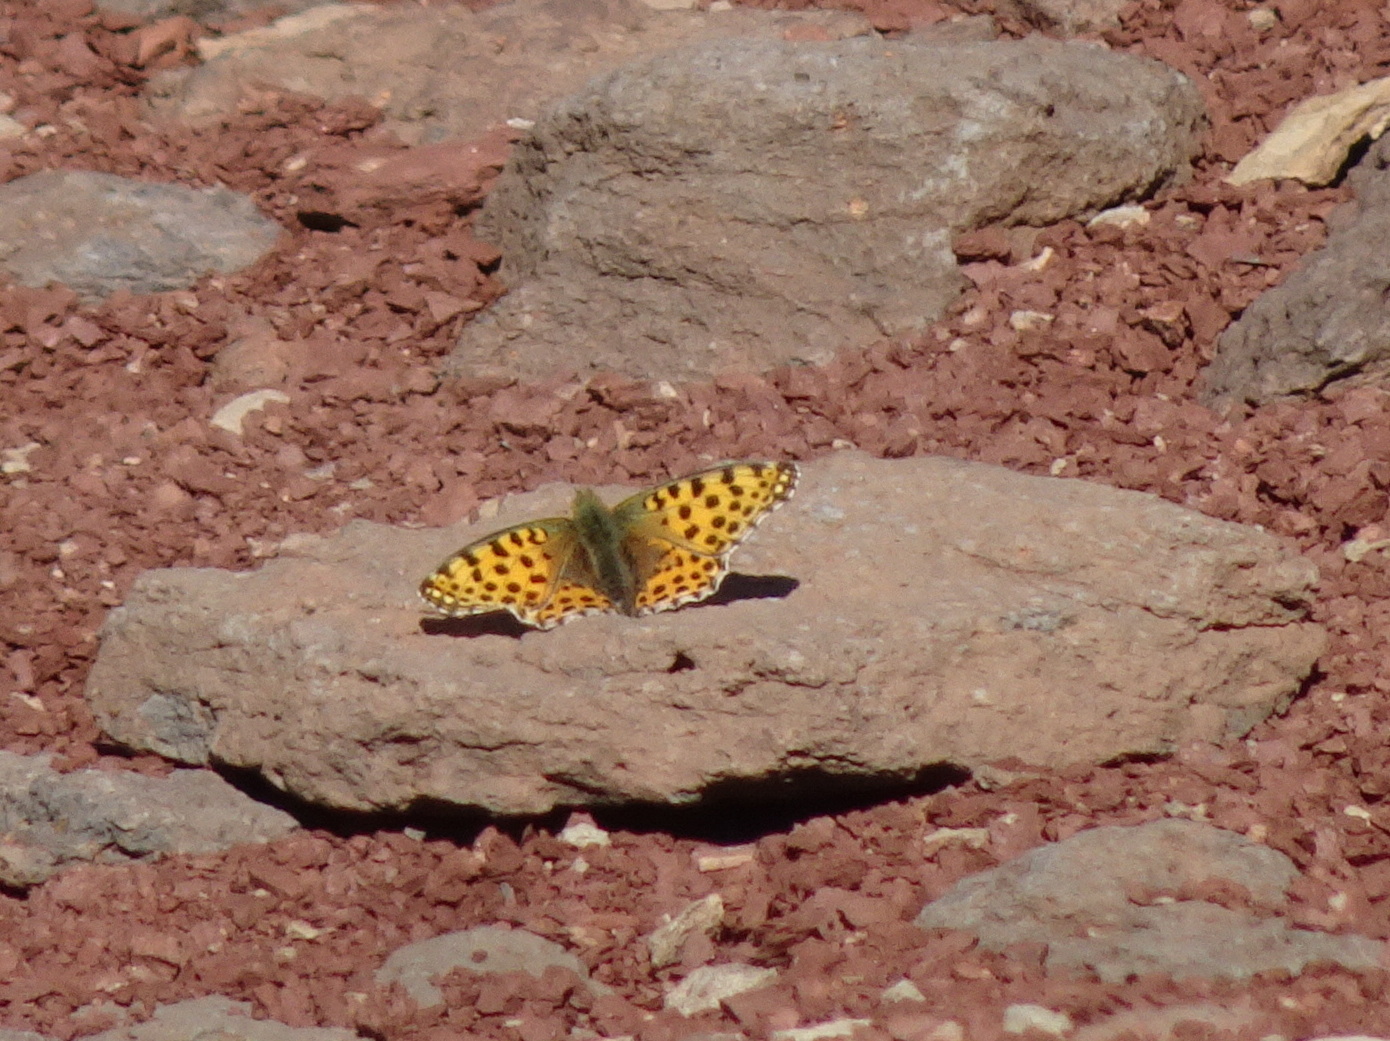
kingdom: Animalia
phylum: Arthropoda
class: Insecta
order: Lepidoptera
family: Nymphalidae
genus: Issoria
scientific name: Issoria lathonia
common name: Queen of spain fritillary
